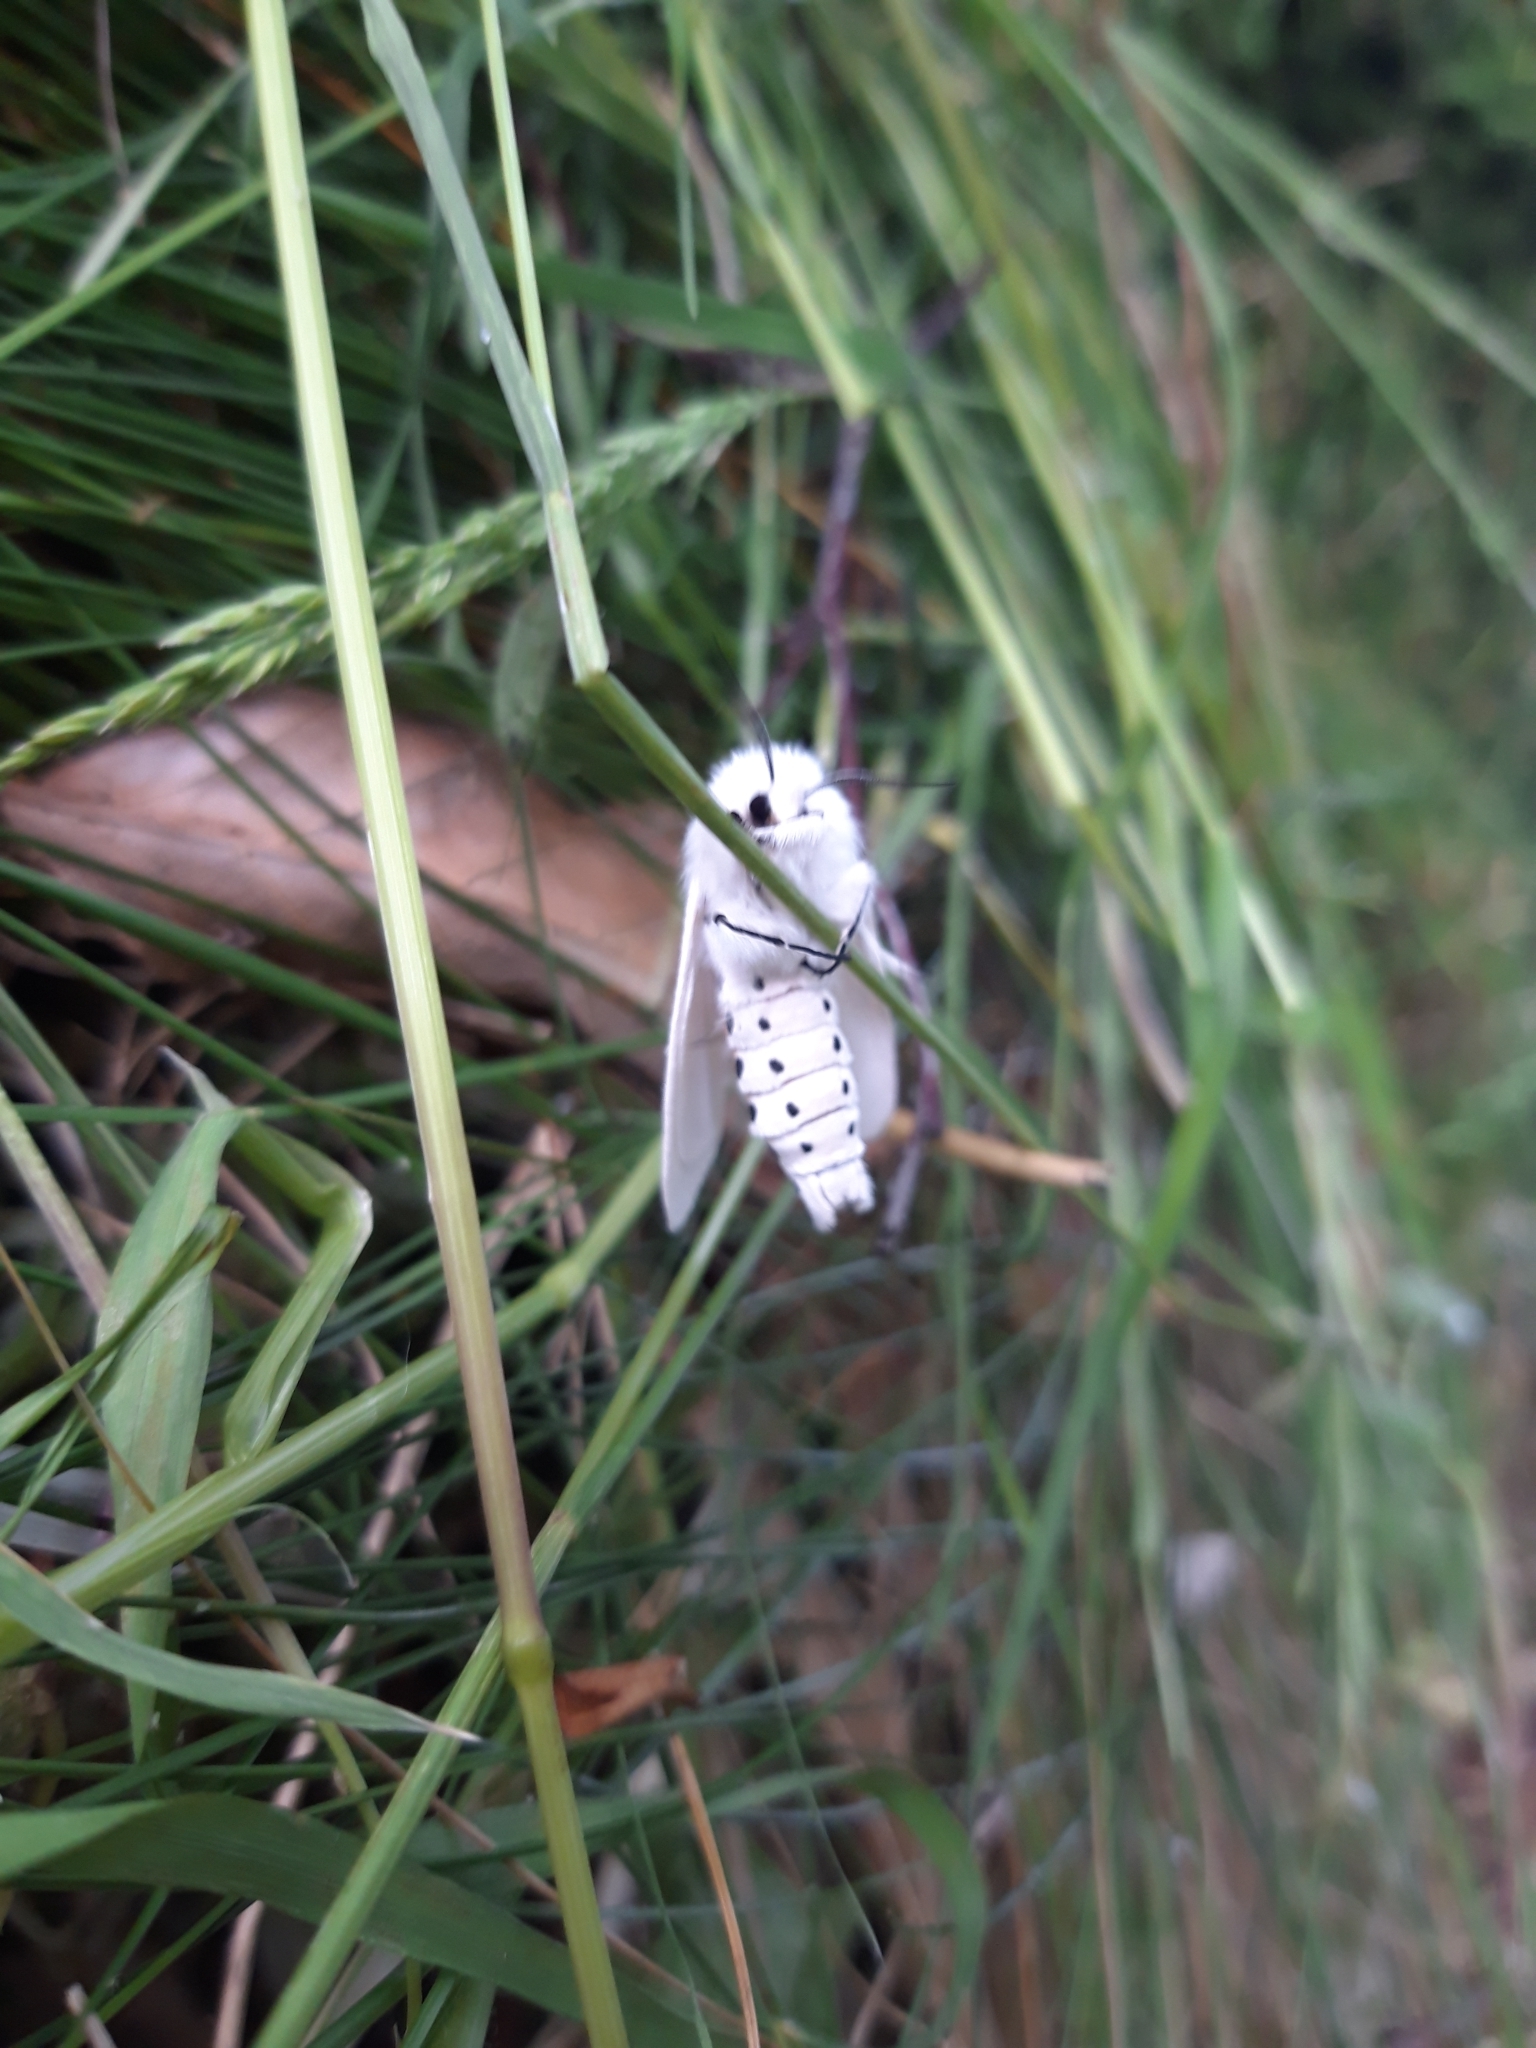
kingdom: Animalia
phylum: Arthropoda
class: Insecta
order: Lepidoptera
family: Erebidae
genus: Spilosoma
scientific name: Spilosoma urticae
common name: Water ermine
